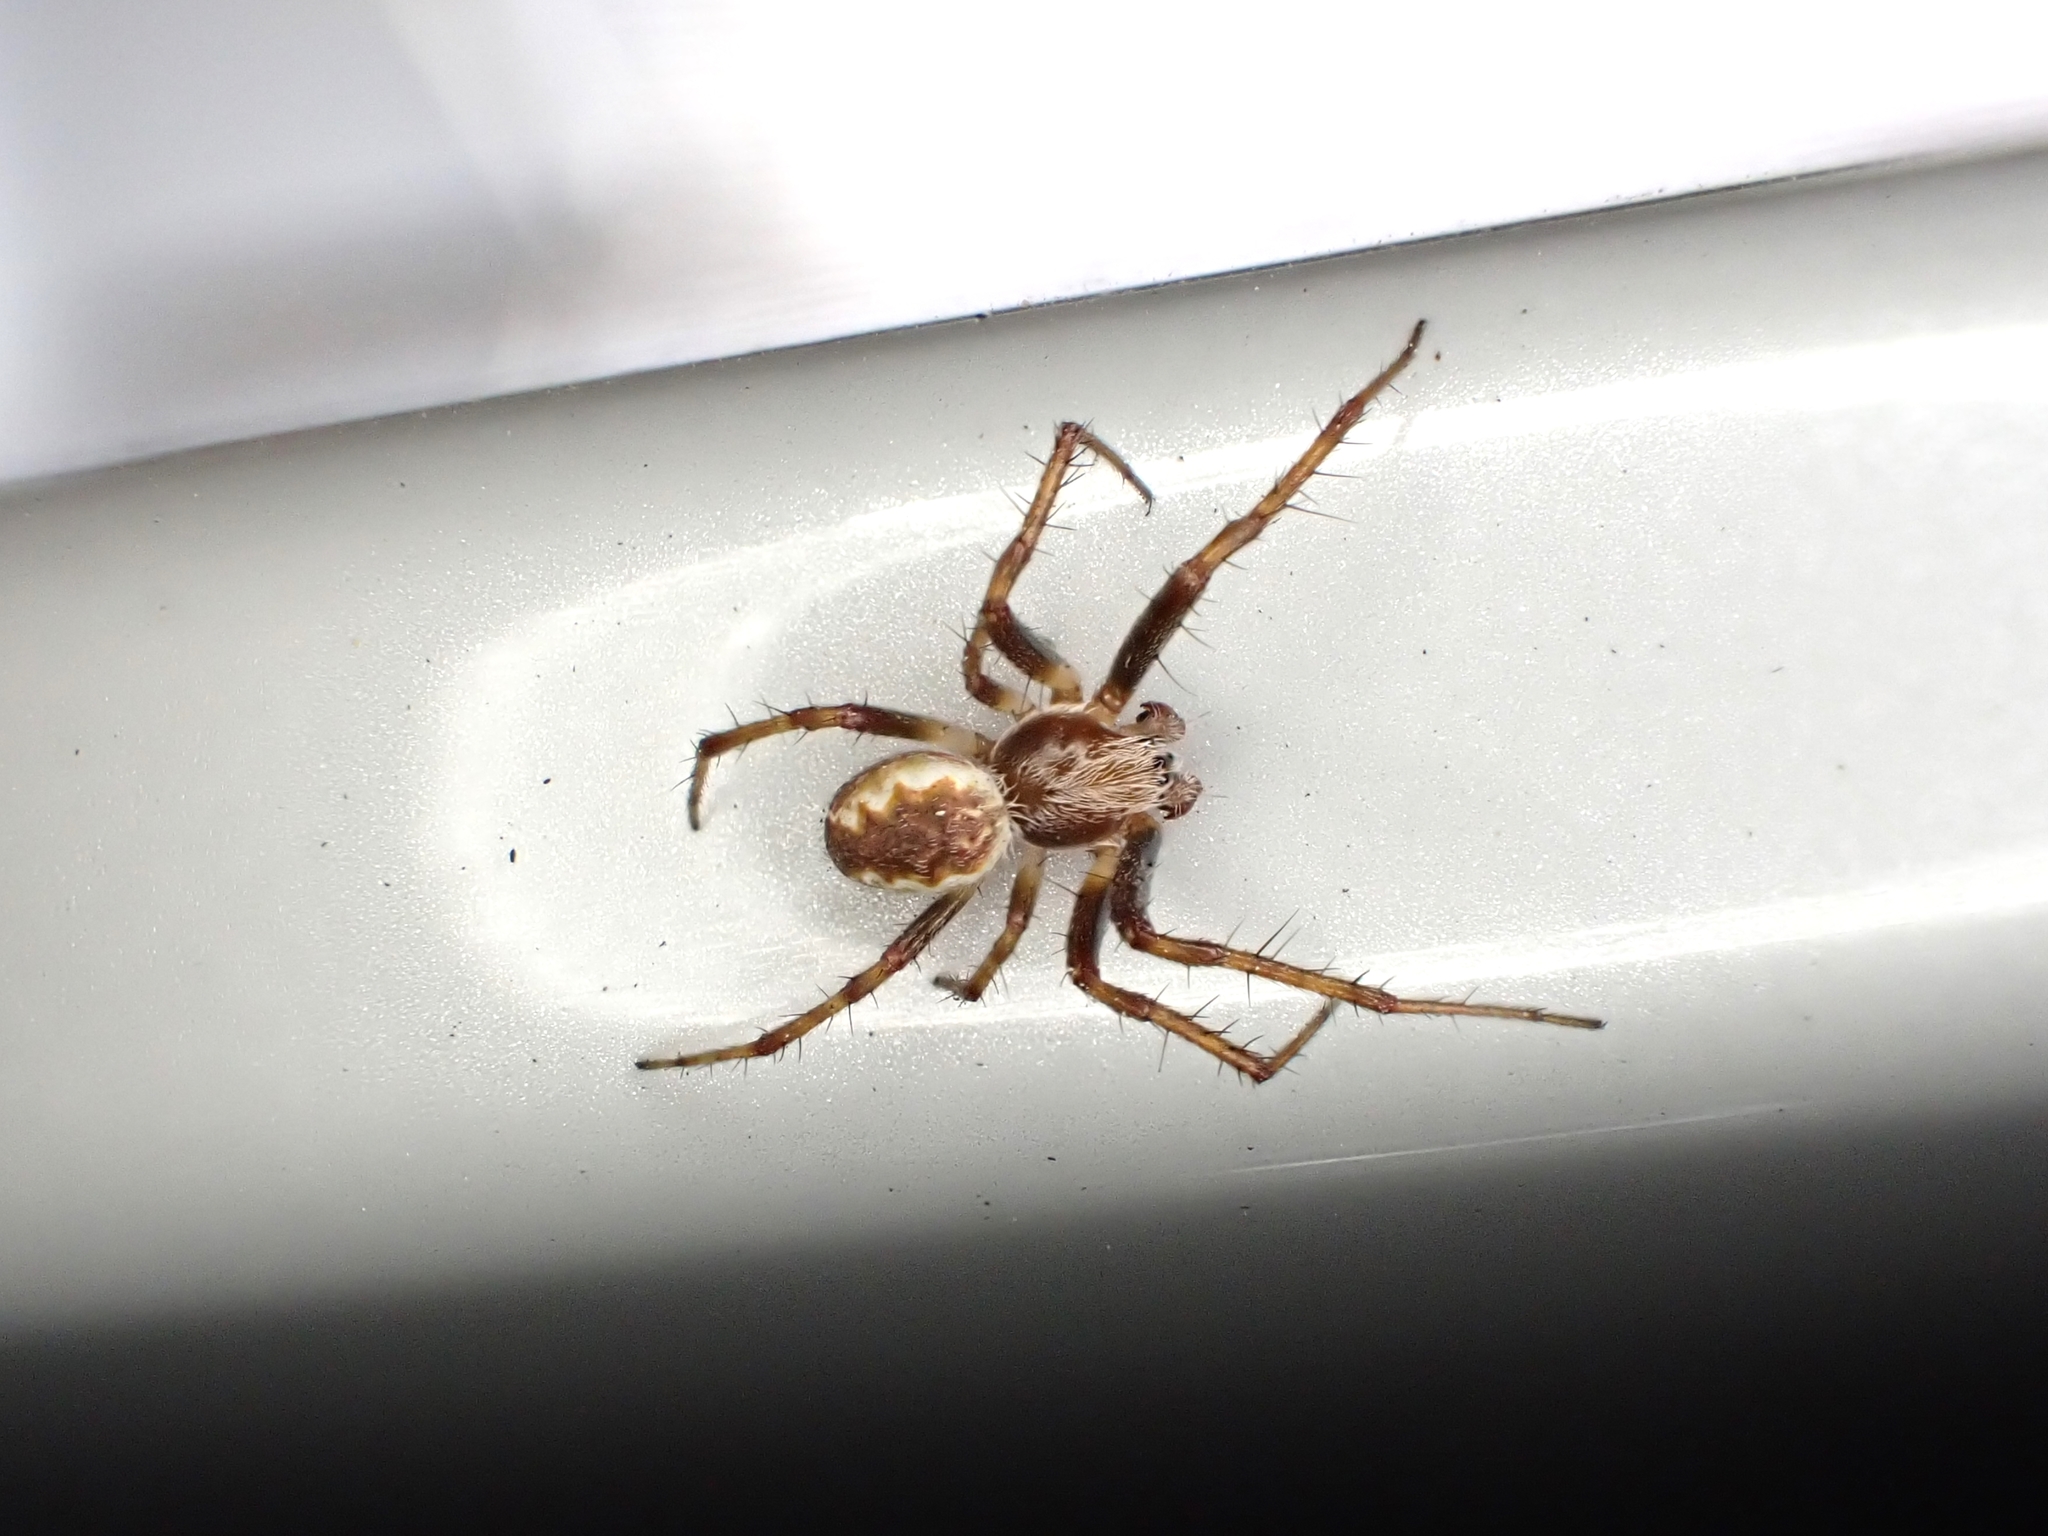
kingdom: Animalia
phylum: Arthropoda
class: Arachnida
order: Araneae
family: Araneidae
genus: Salsa
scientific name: Salsa fuliginata
